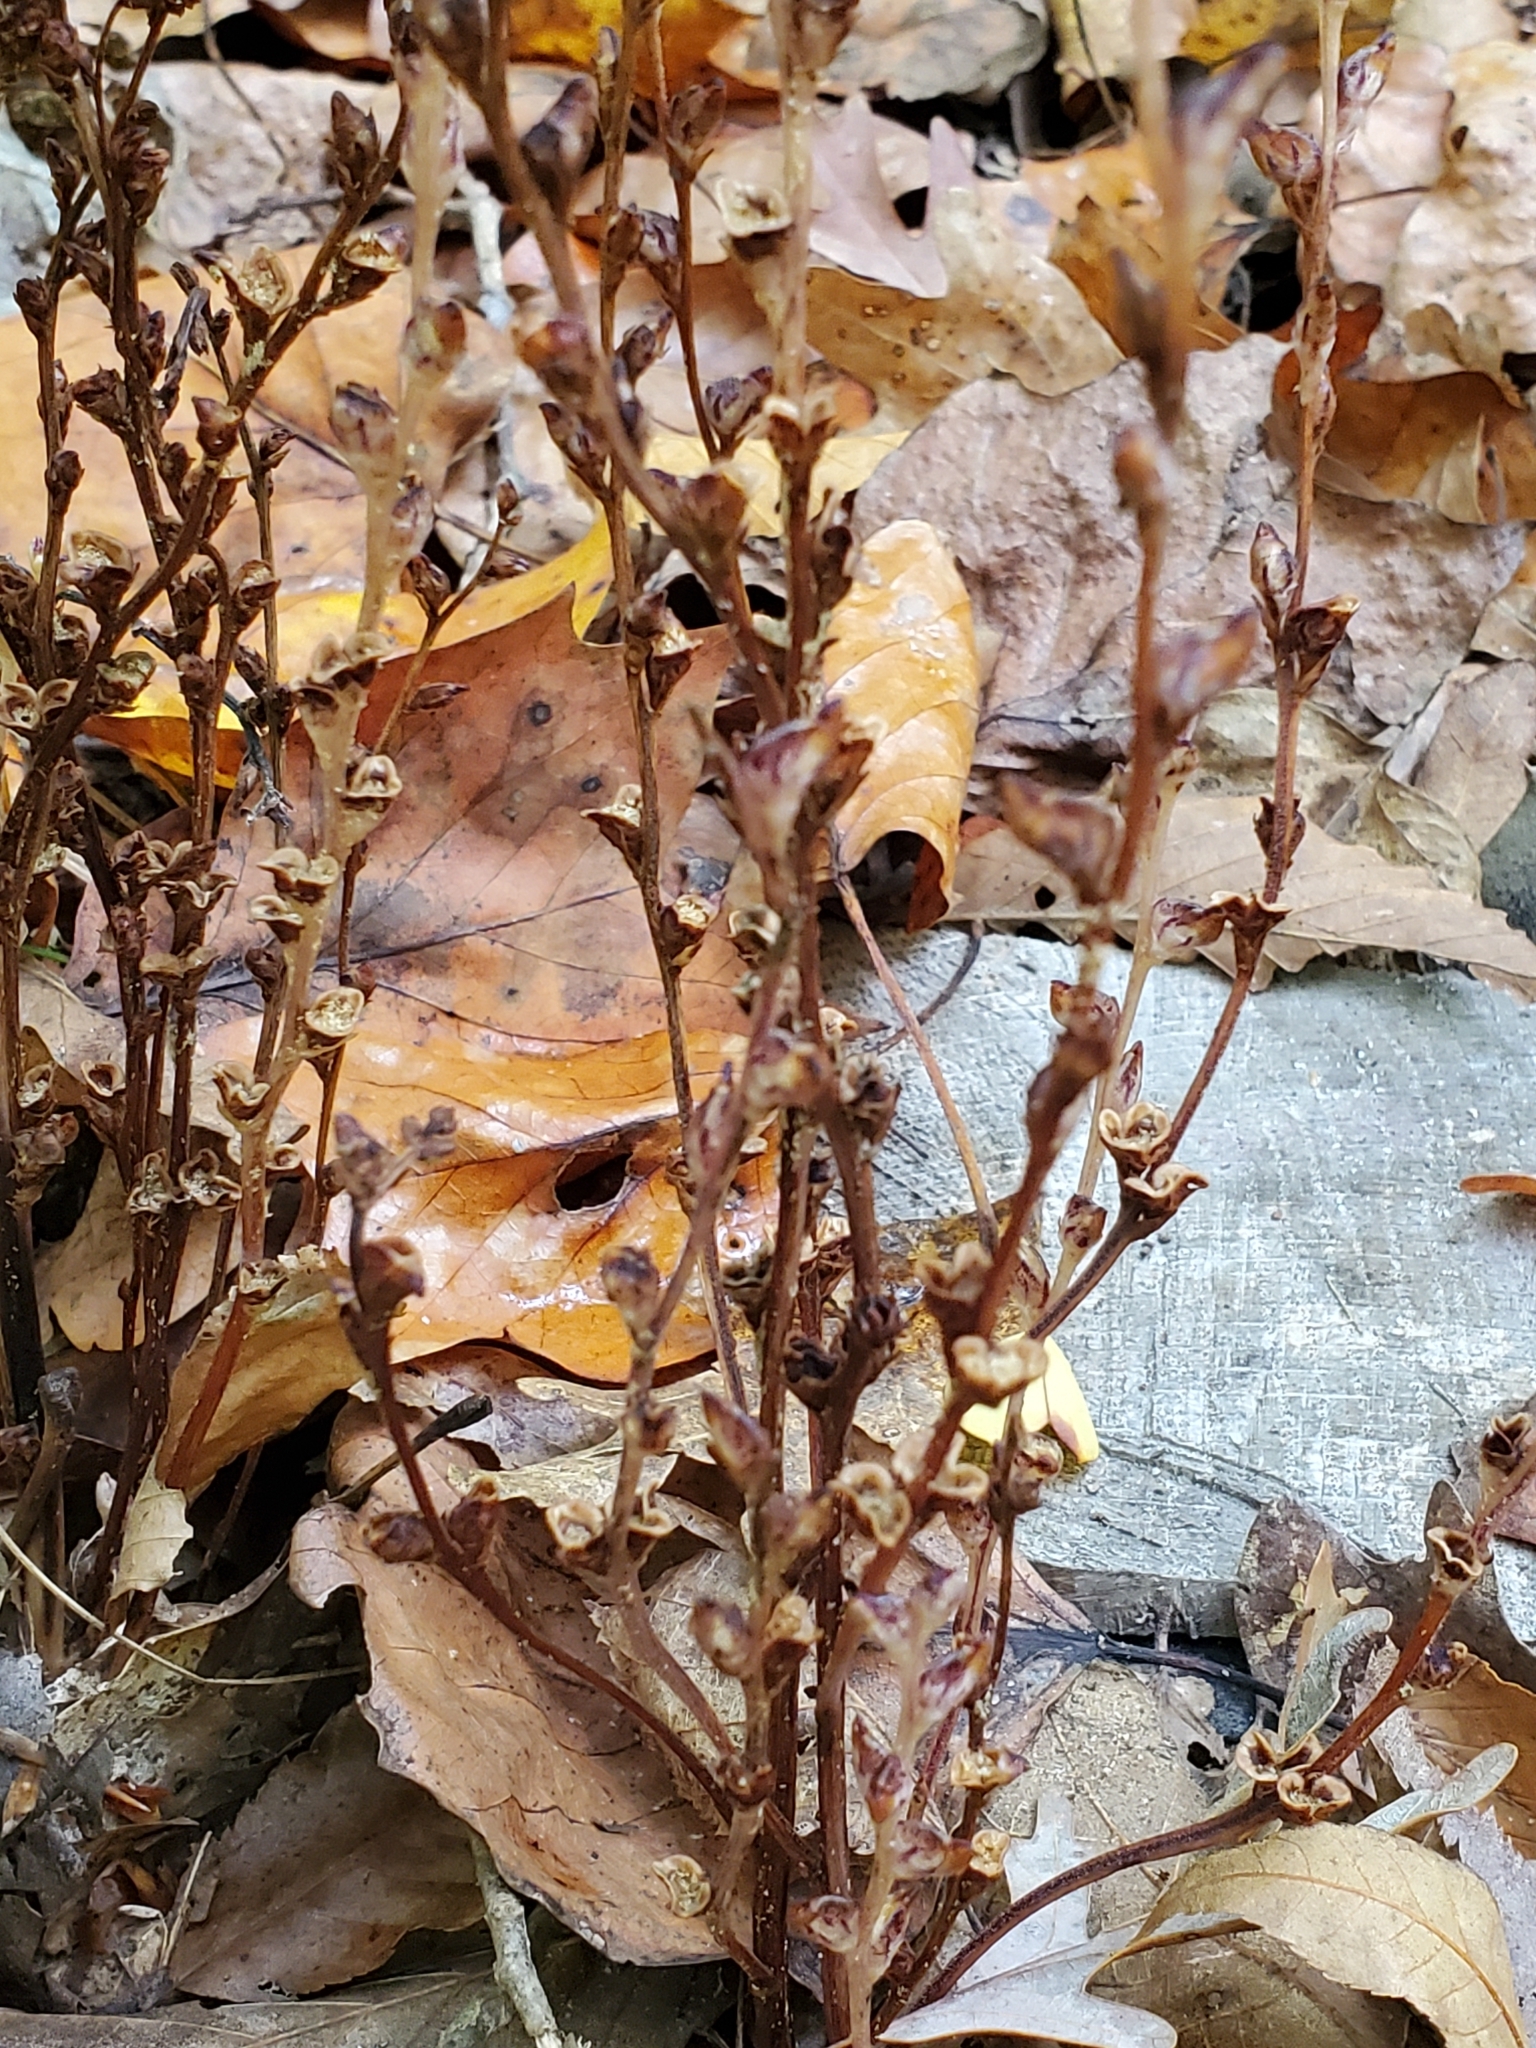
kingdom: Plantae
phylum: Tracheophyta
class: Magnoliopsida
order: Lamiales
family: Orobanchaceae
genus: Epifagus
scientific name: Epifagus virginiana
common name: Beechdrops
